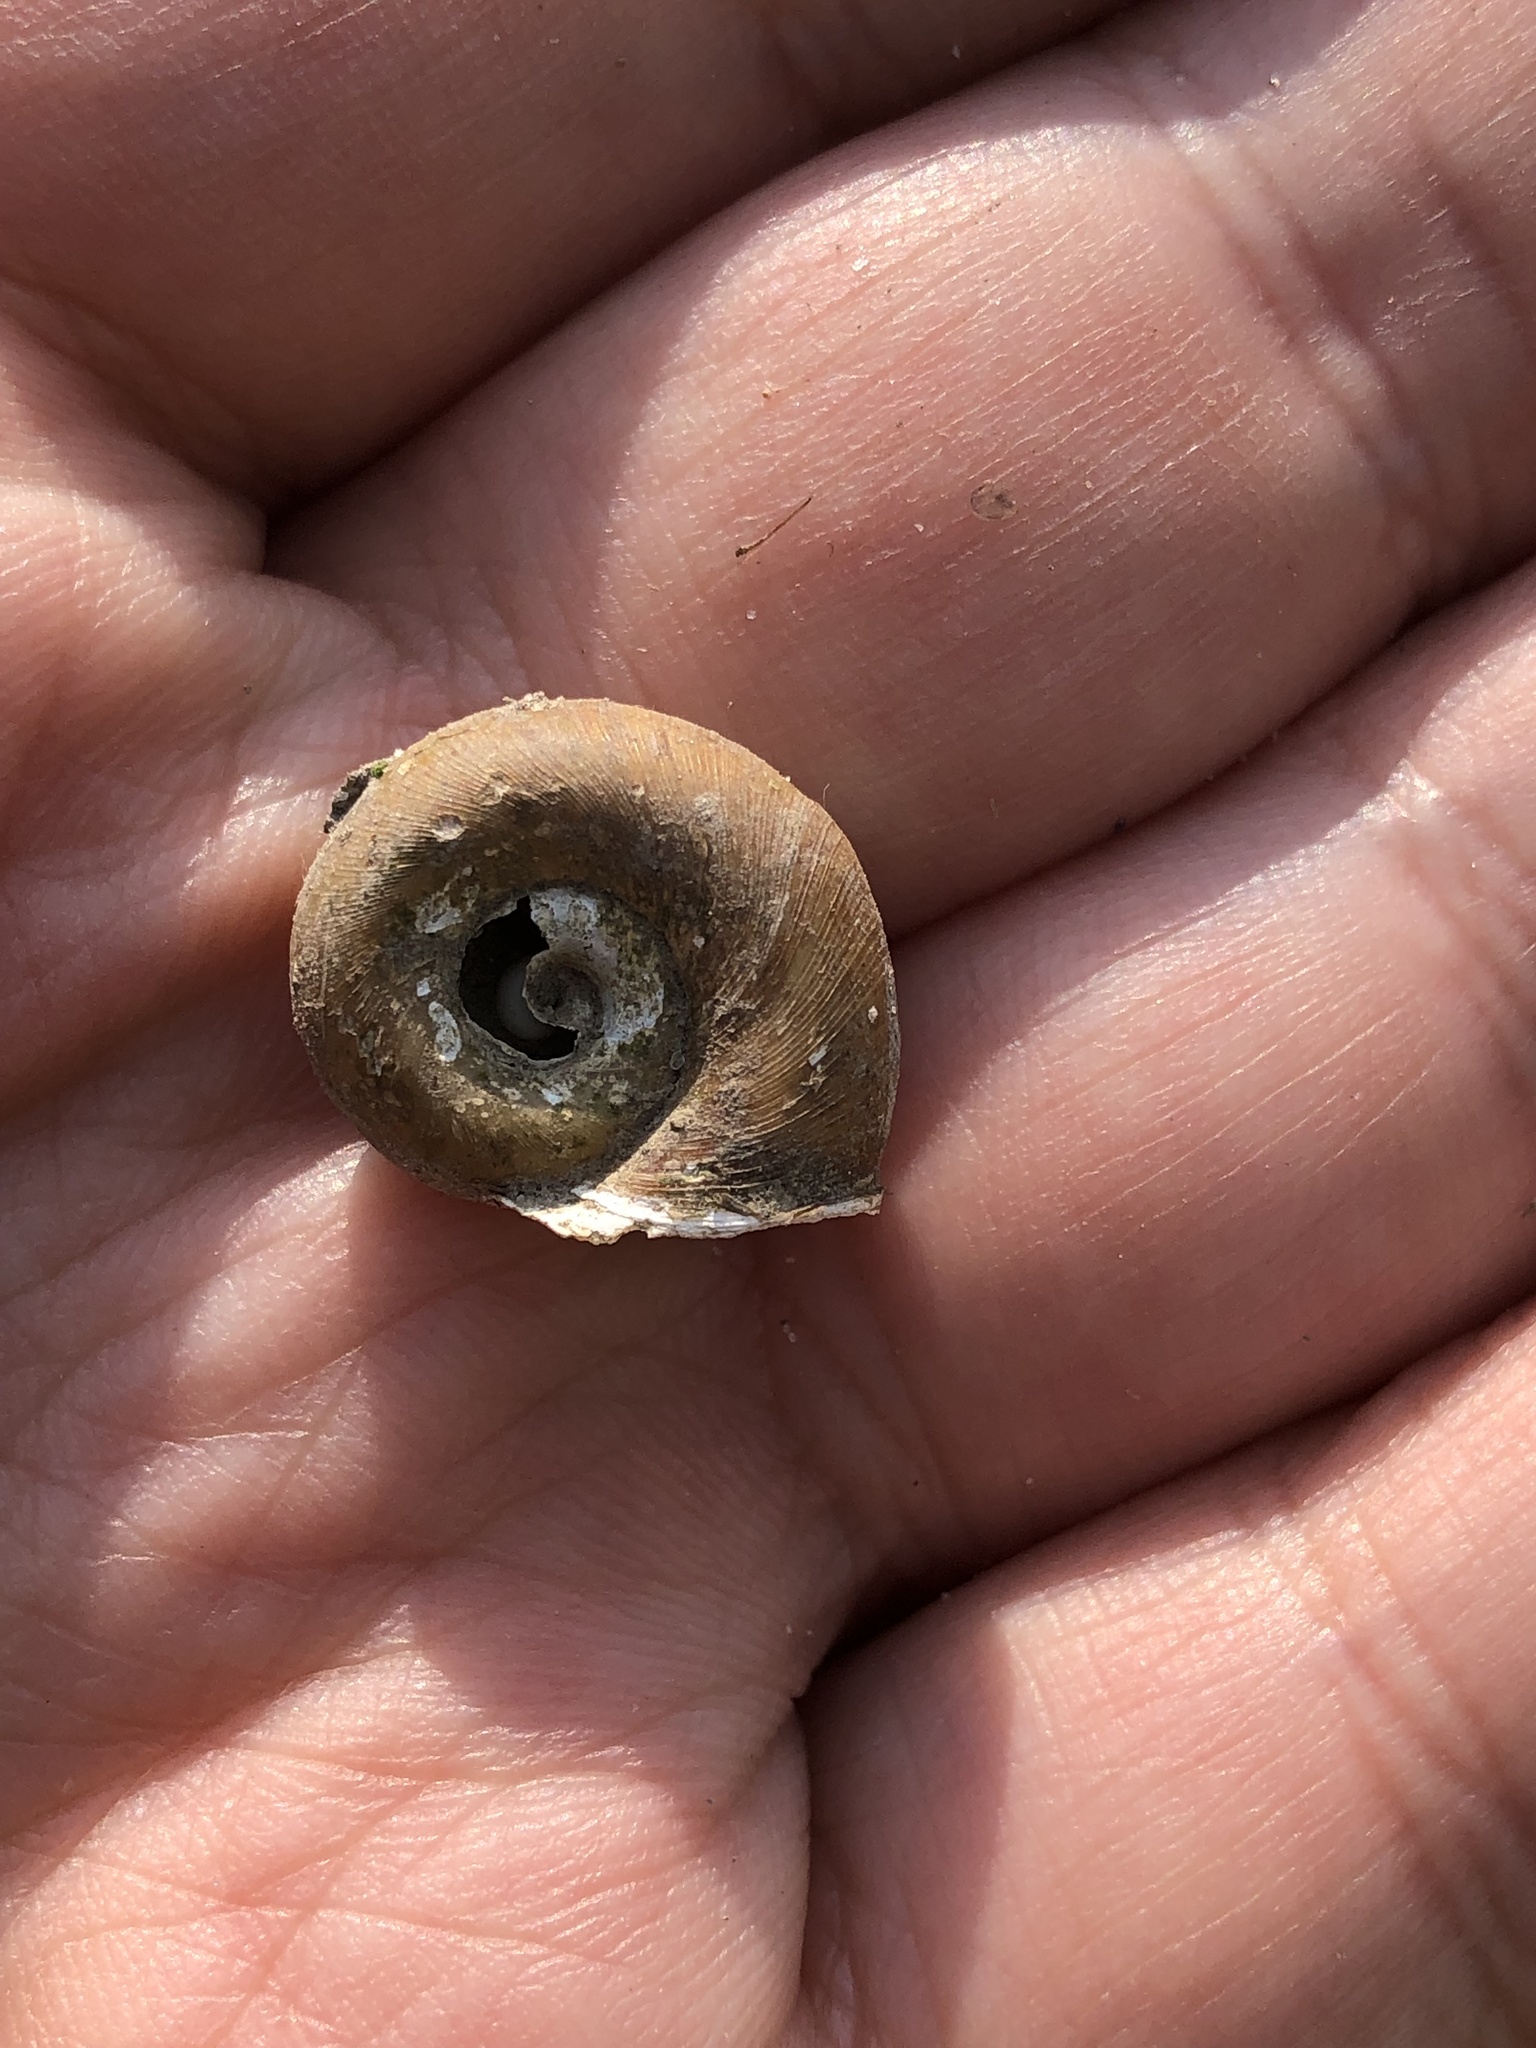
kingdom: Animalia
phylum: Mollusca
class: Gastropoda
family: Planorbidae
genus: Planorbella
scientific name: Planorbella trivolvis
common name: Marsh rams-horn
